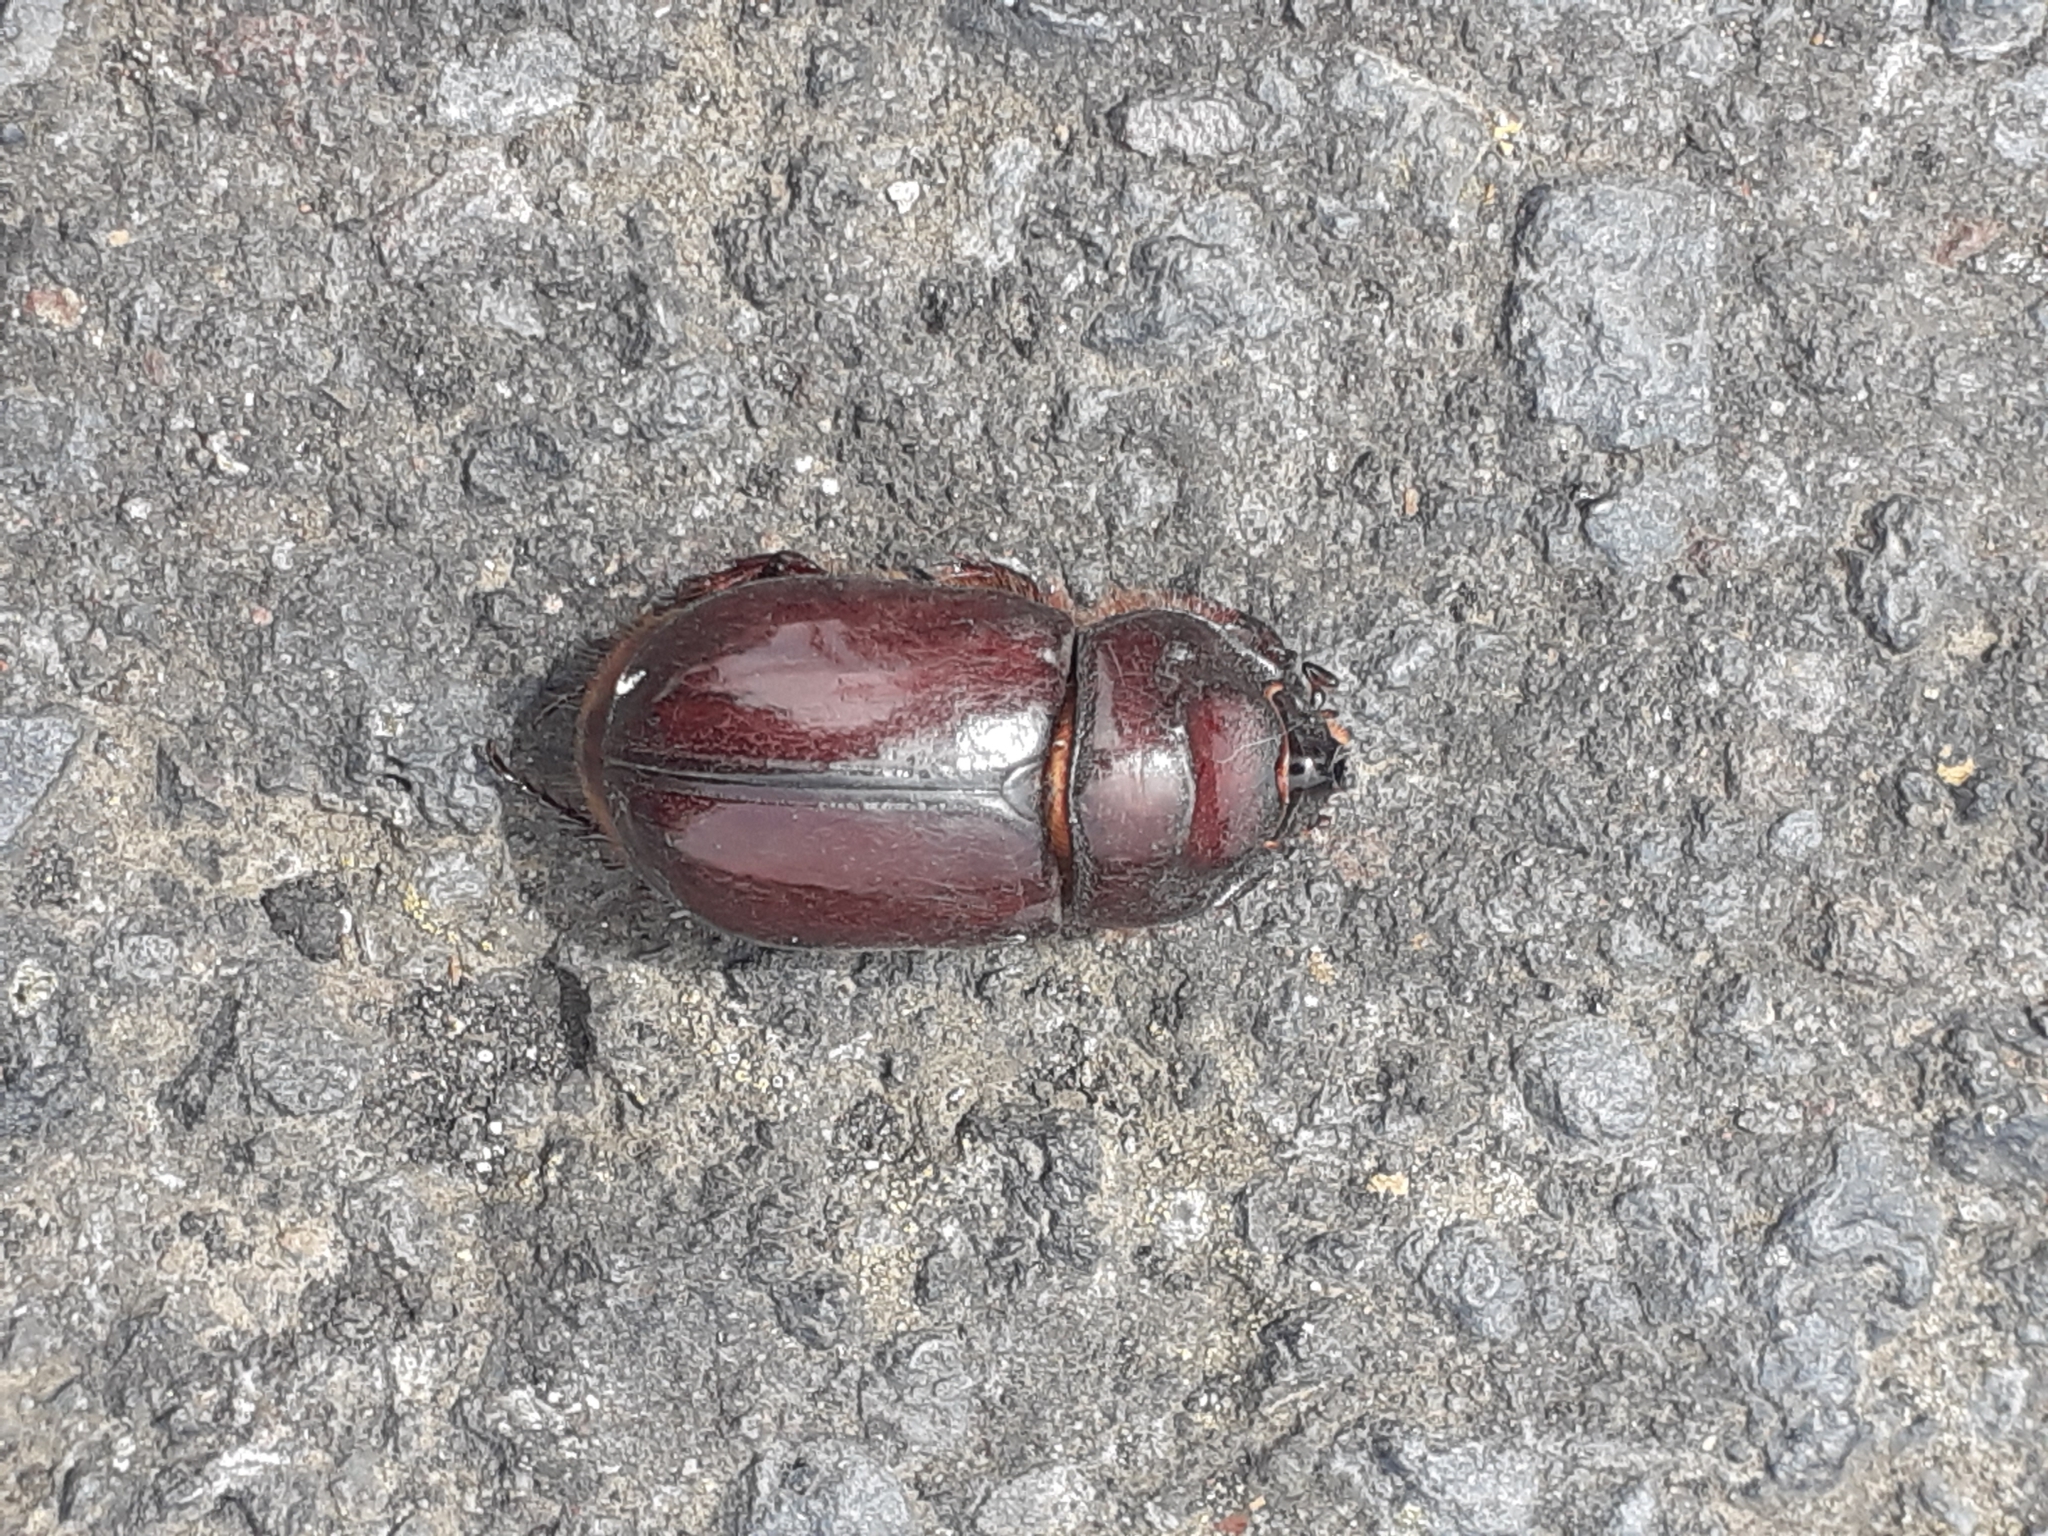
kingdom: Animalia
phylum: Arthropoda
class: Insecta
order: Coleoptera
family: Scarabaeidae
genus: Oryctes
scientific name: Oryctes prolixus
